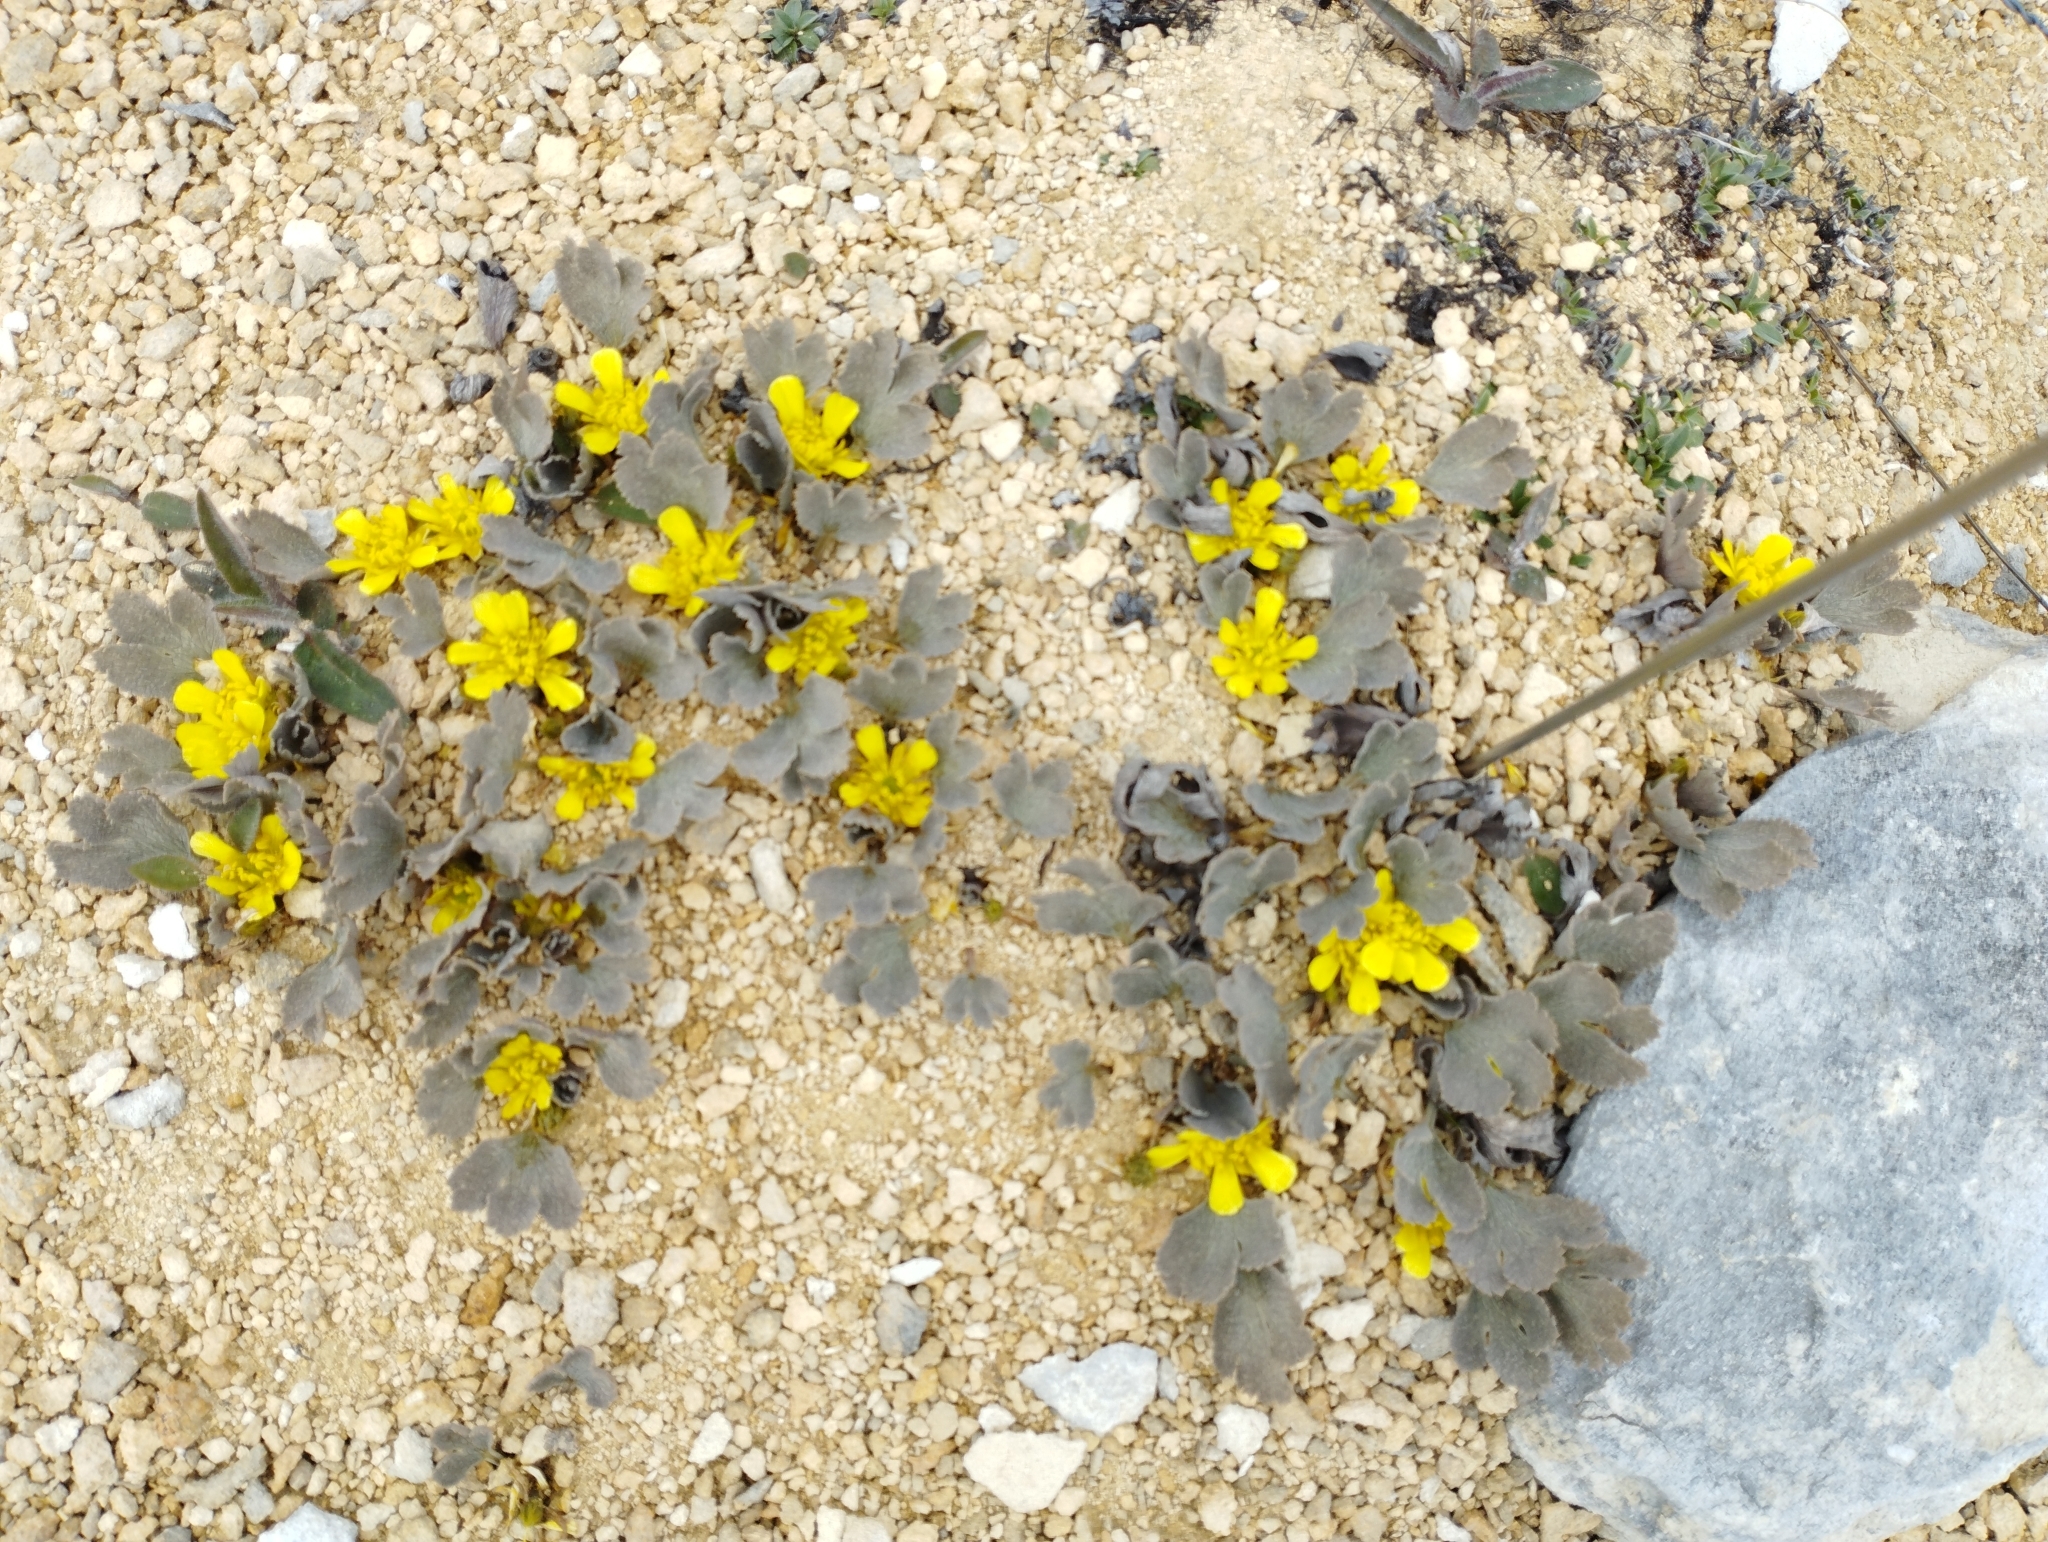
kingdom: Plantae
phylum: Tracheophyta
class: Magnoliopsida
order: Ranunculales
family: Ranunculaceae
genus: Ranunculus
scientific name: Ranunculus paucifolius
